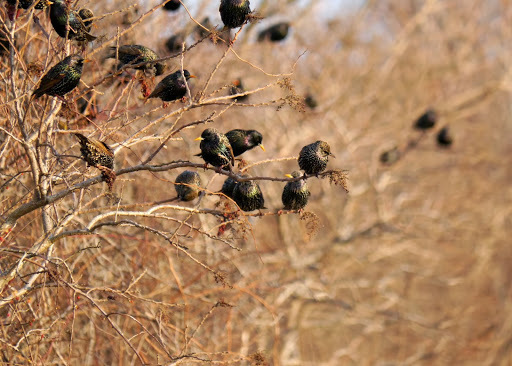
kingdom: Animalia
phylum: Chordata
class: Aves
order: Passeriformes
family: Sturnidae
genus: Sturnus
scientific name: Sturnus vulgaris
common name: Common starling
